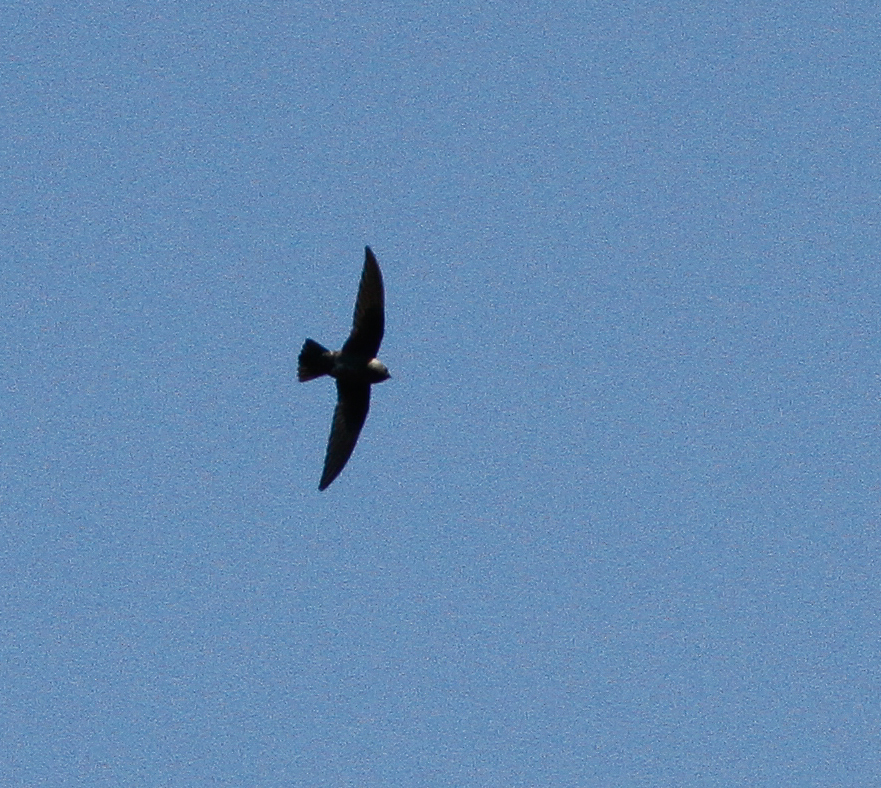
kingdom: Animalia
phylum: Chordata
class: Aves
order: Apodiformes
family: Apodidae
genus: Cypseloides
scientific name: Cypseloides niger
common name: Black swift
